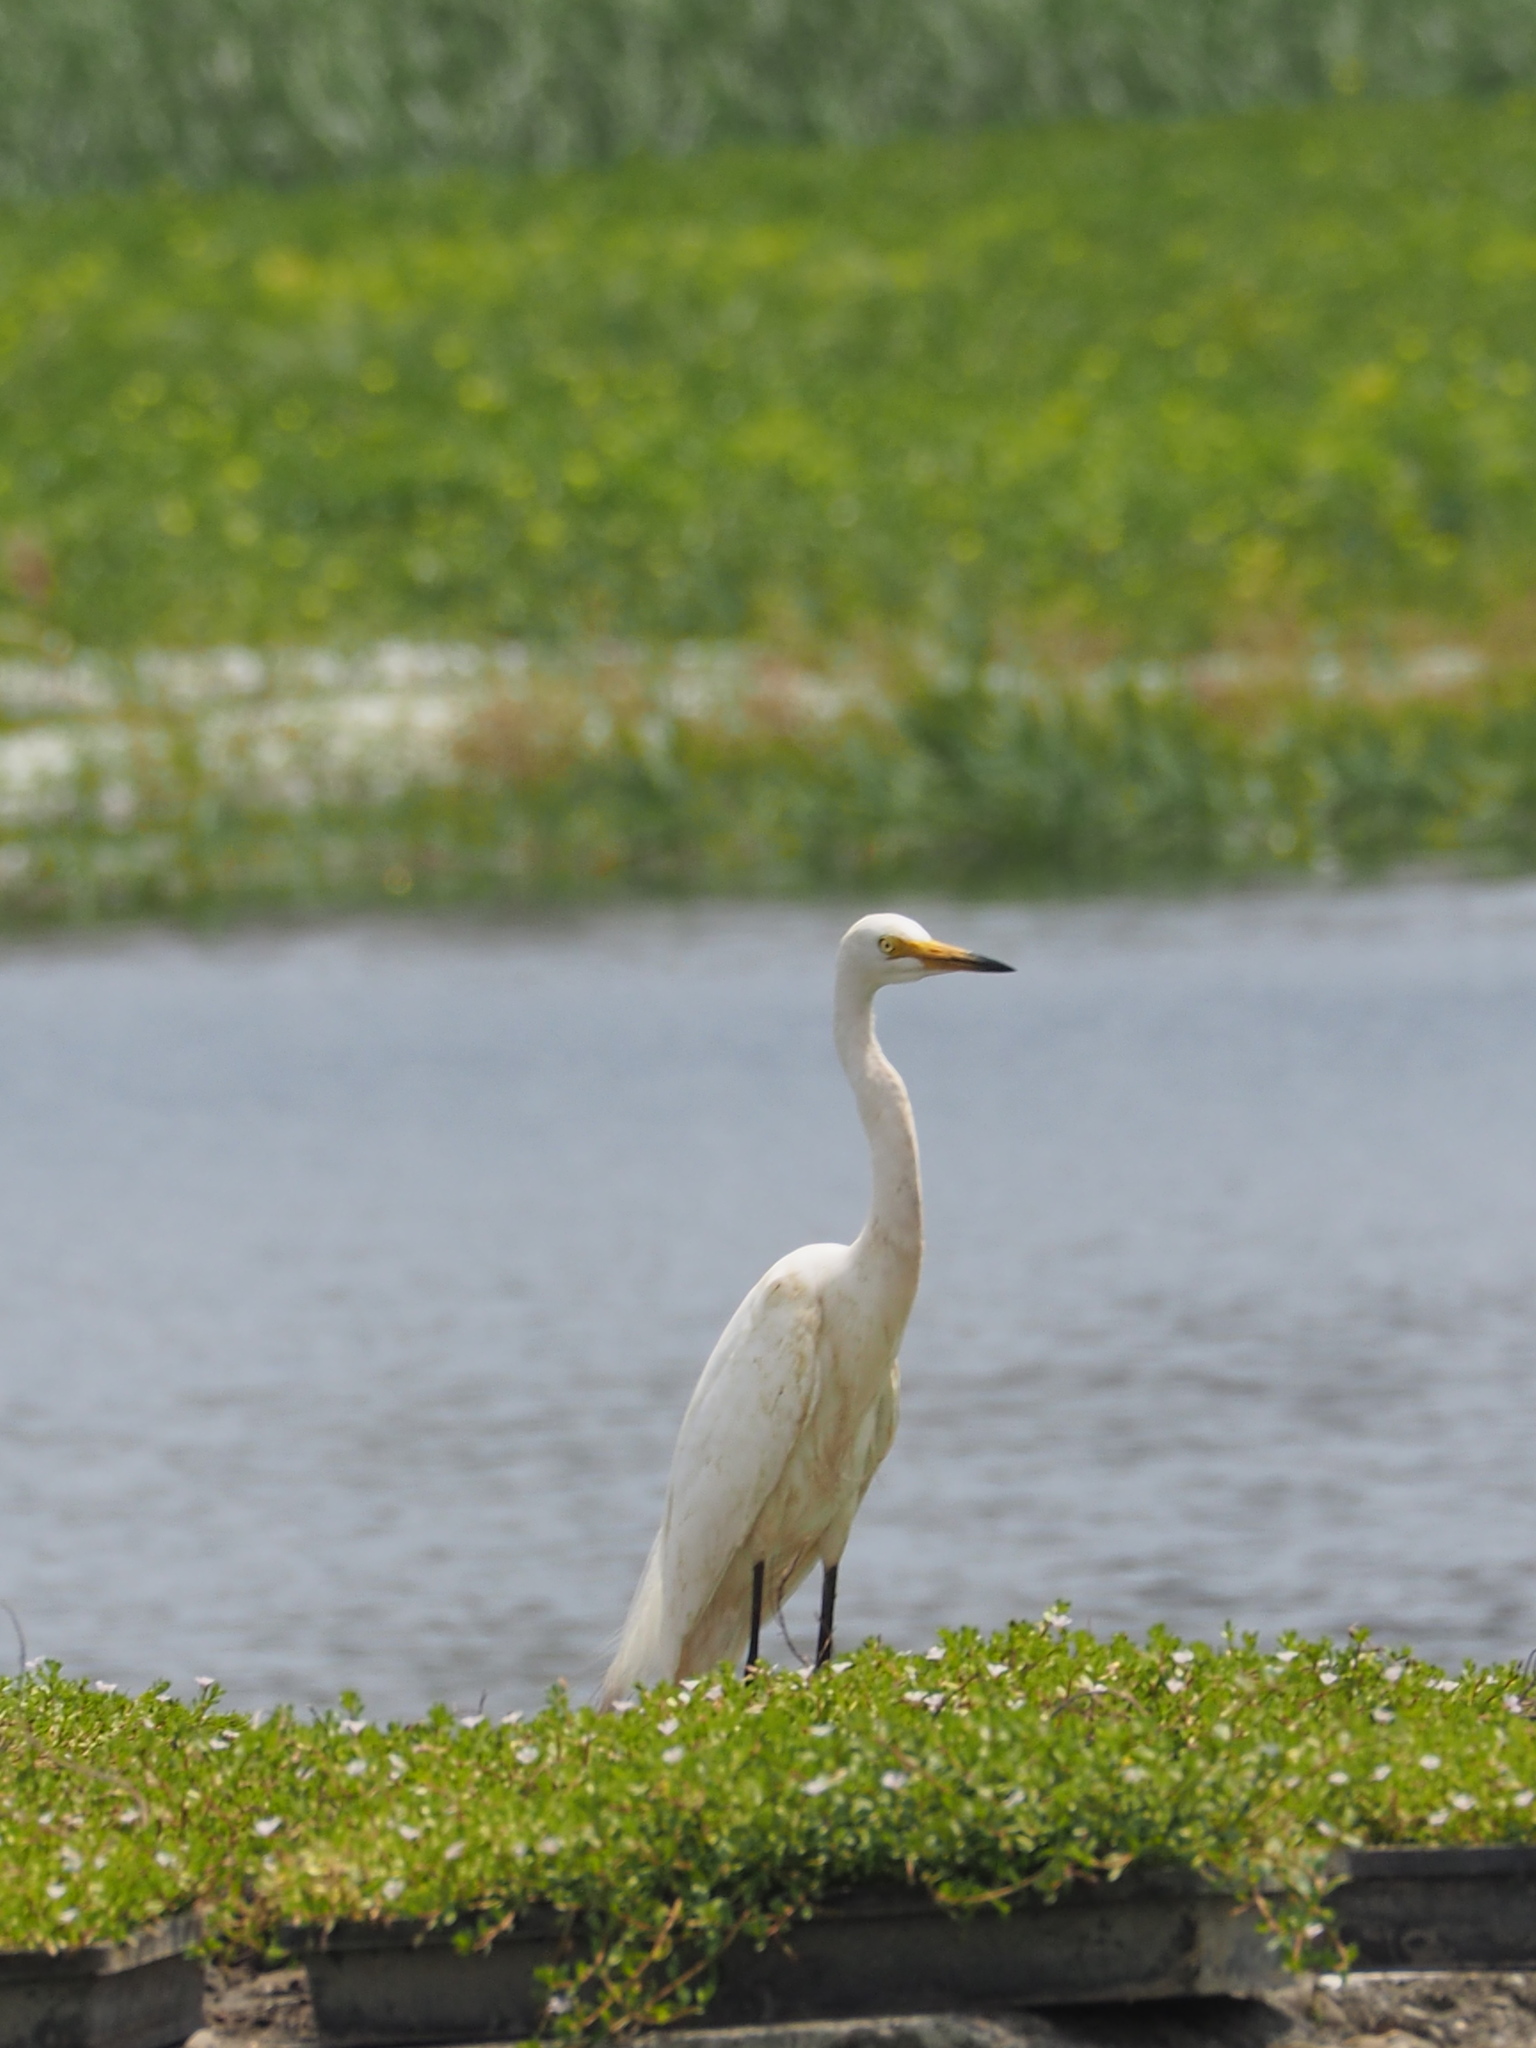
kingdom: Animalia
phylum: Chordata
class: Aves
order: Pelecaniformes
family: Ardeidae
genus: Egretta
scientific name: Egretta intermedia
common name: Intermediate egret
